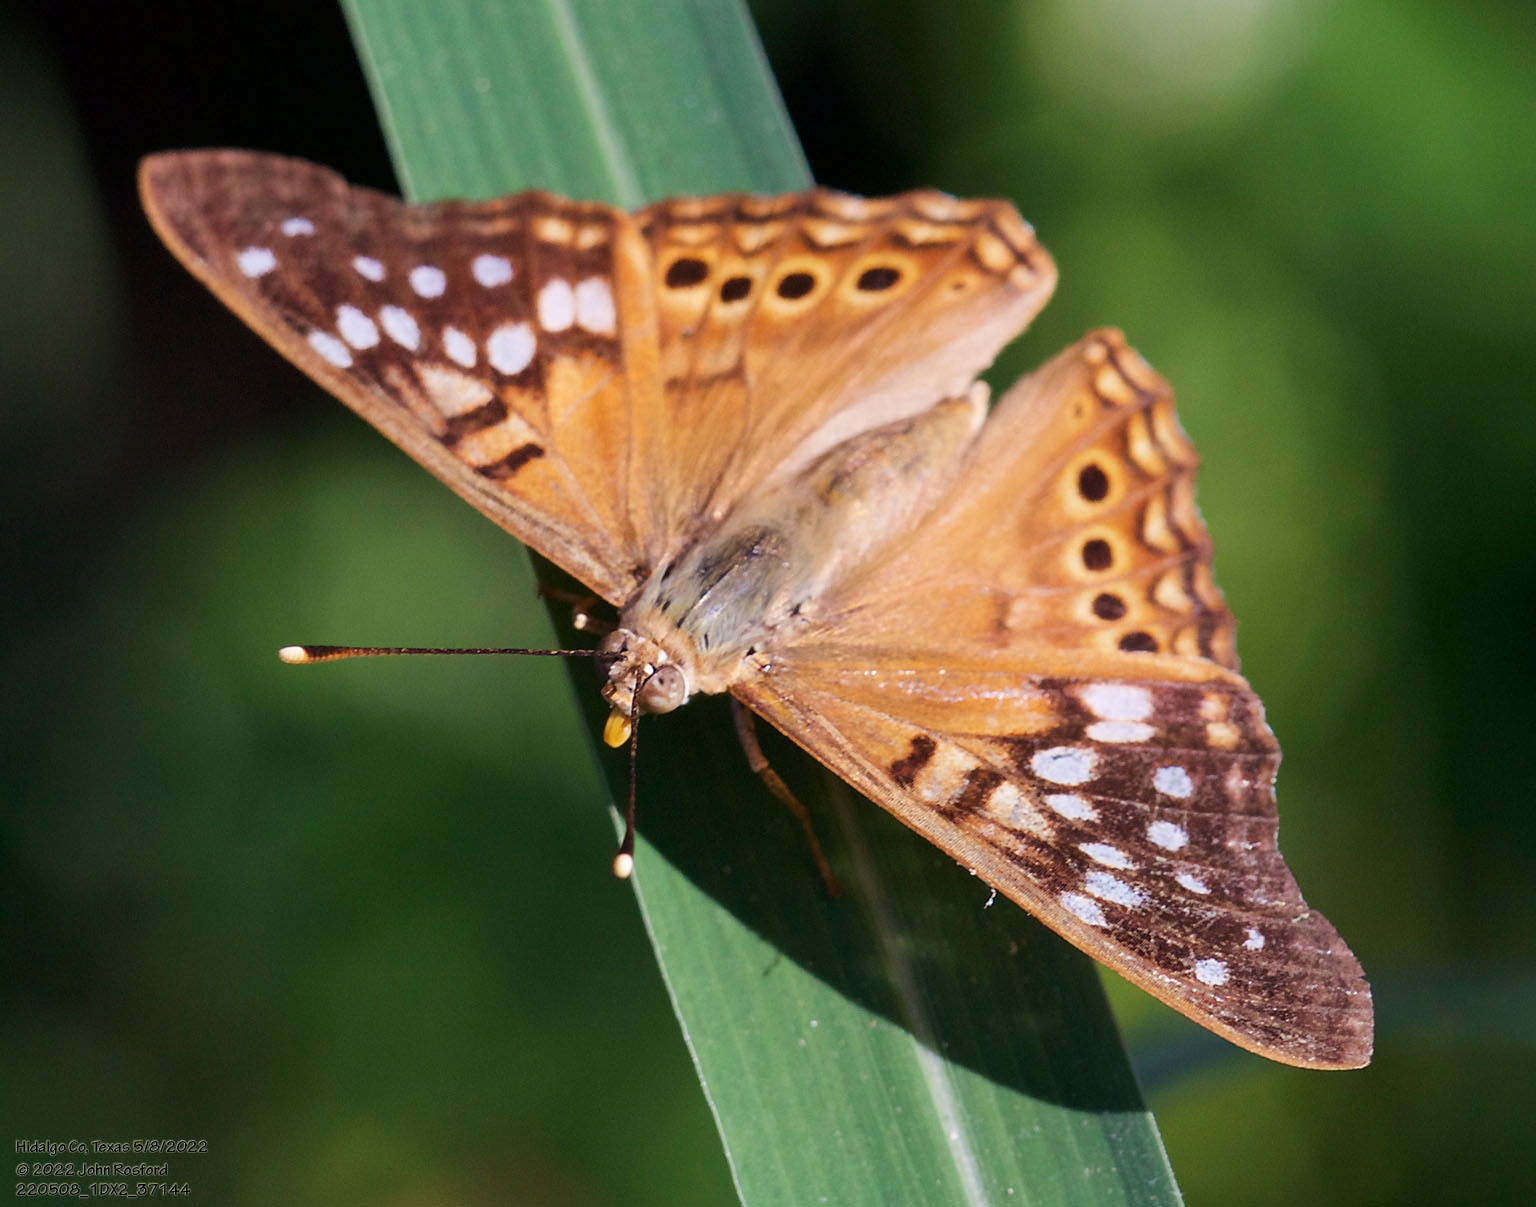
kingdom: Animalia
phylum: Arthropoda
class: Insecta
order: Lepidoptera
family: Nymphalidae
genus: Asterocampa
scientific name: Asterocampa clyton
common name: Tawny emperor
